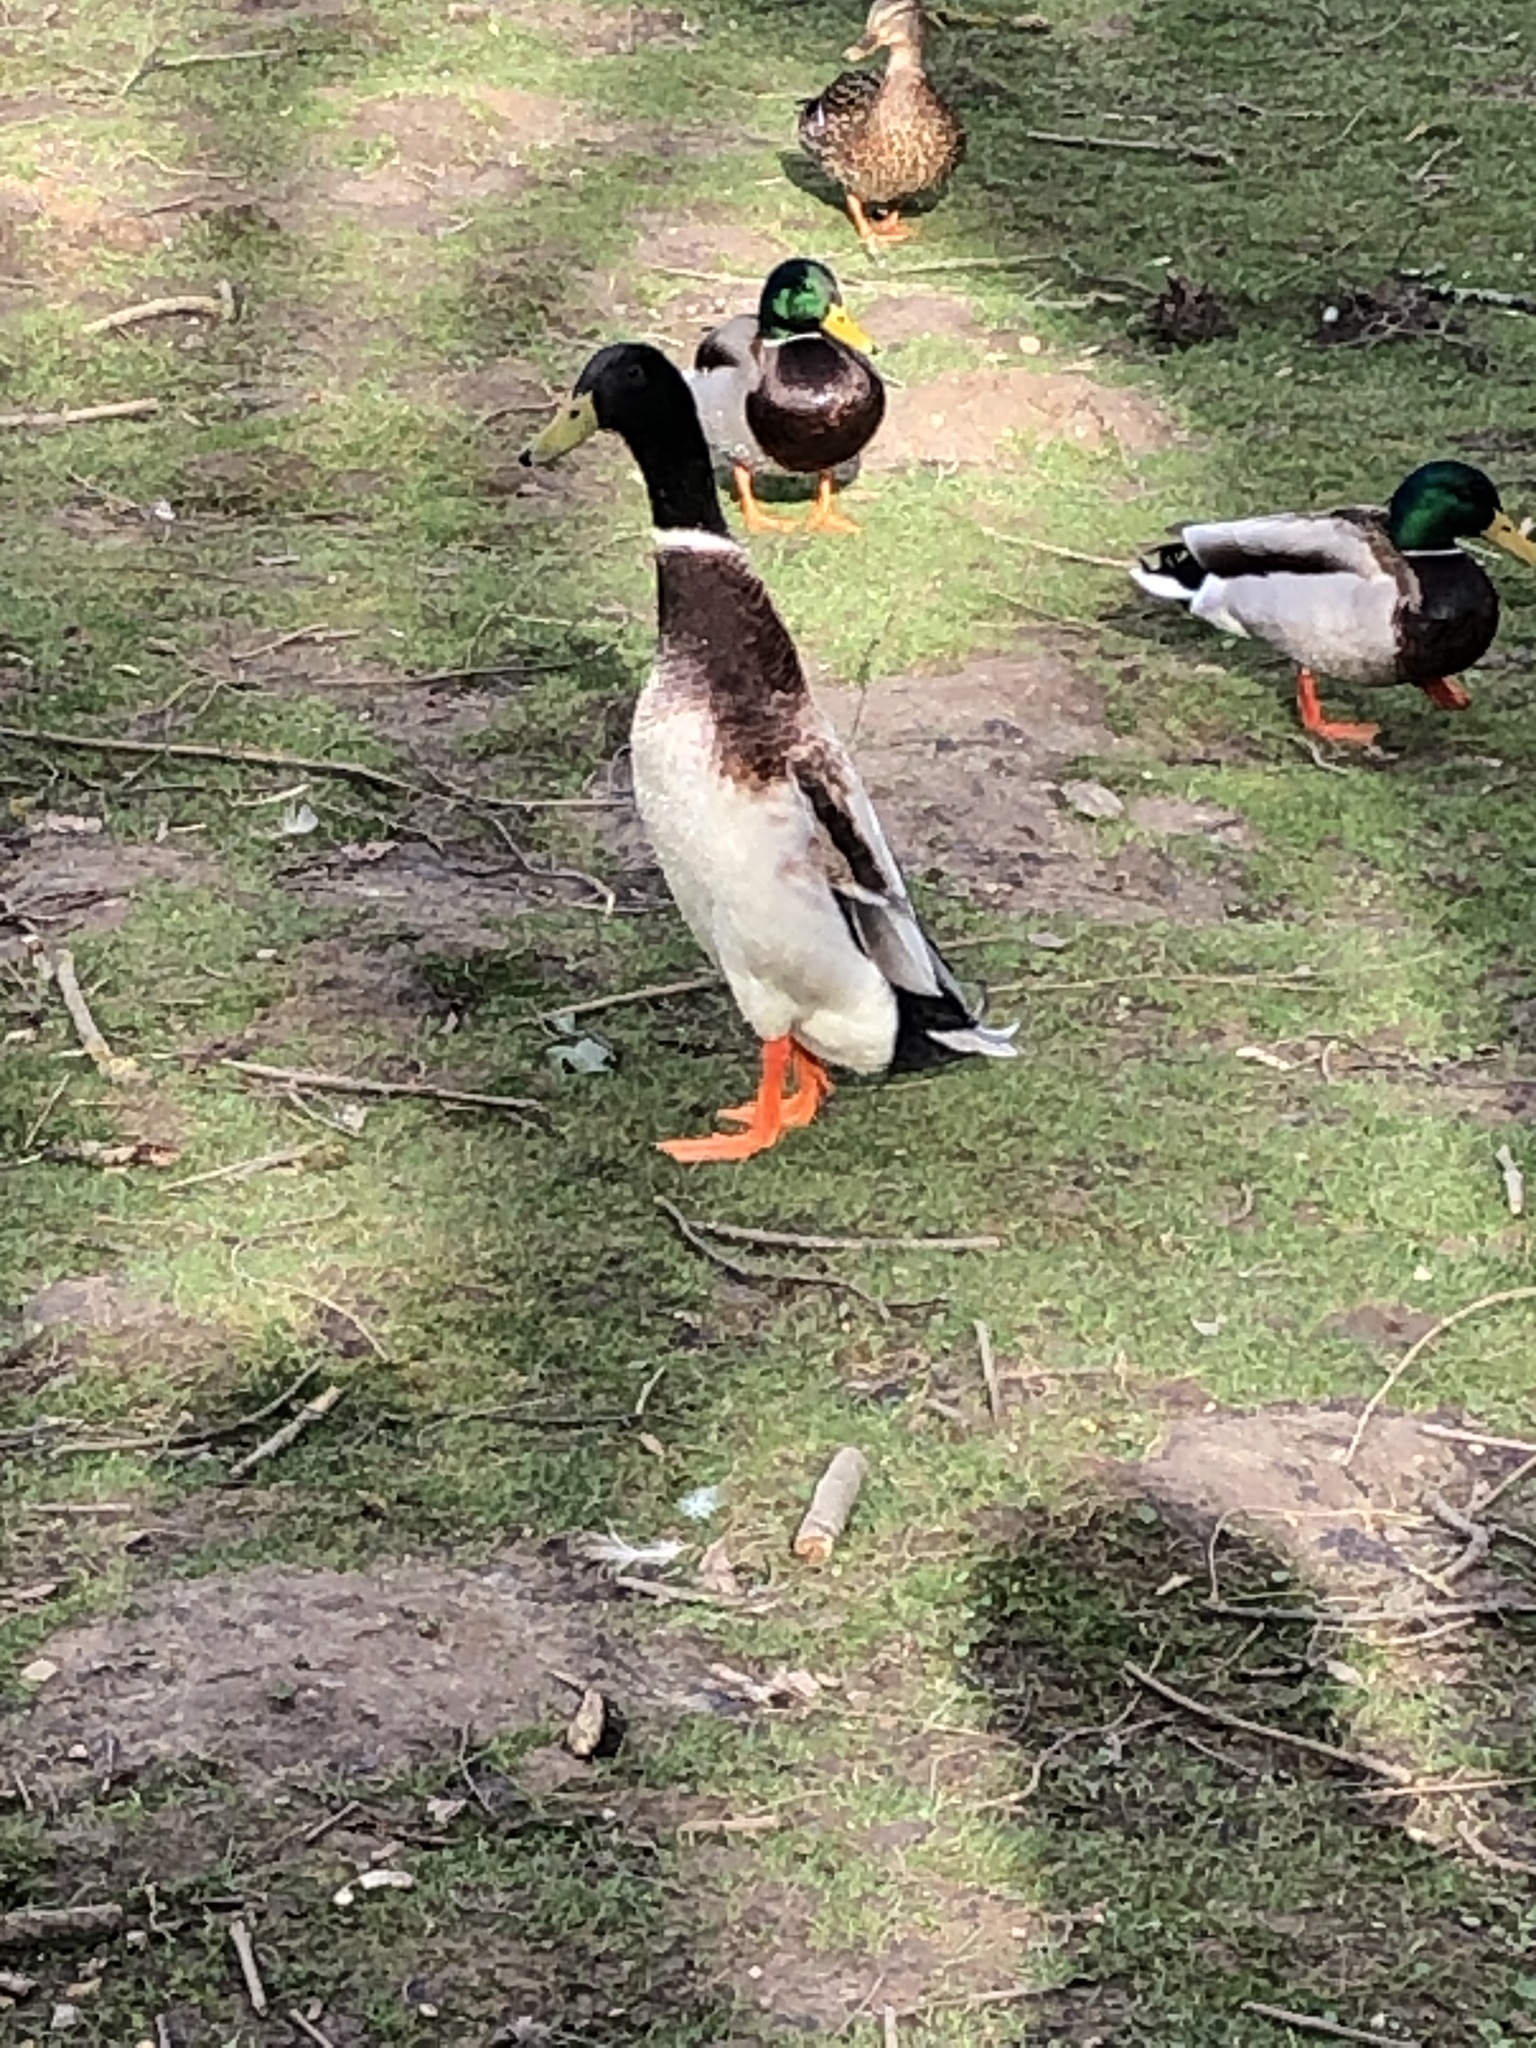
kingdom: Animalia
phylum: Chordata
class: Aves
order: Anseriformes
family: Anatidae
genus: Anas
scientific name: Anas platyrhynchos
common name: Mallard
